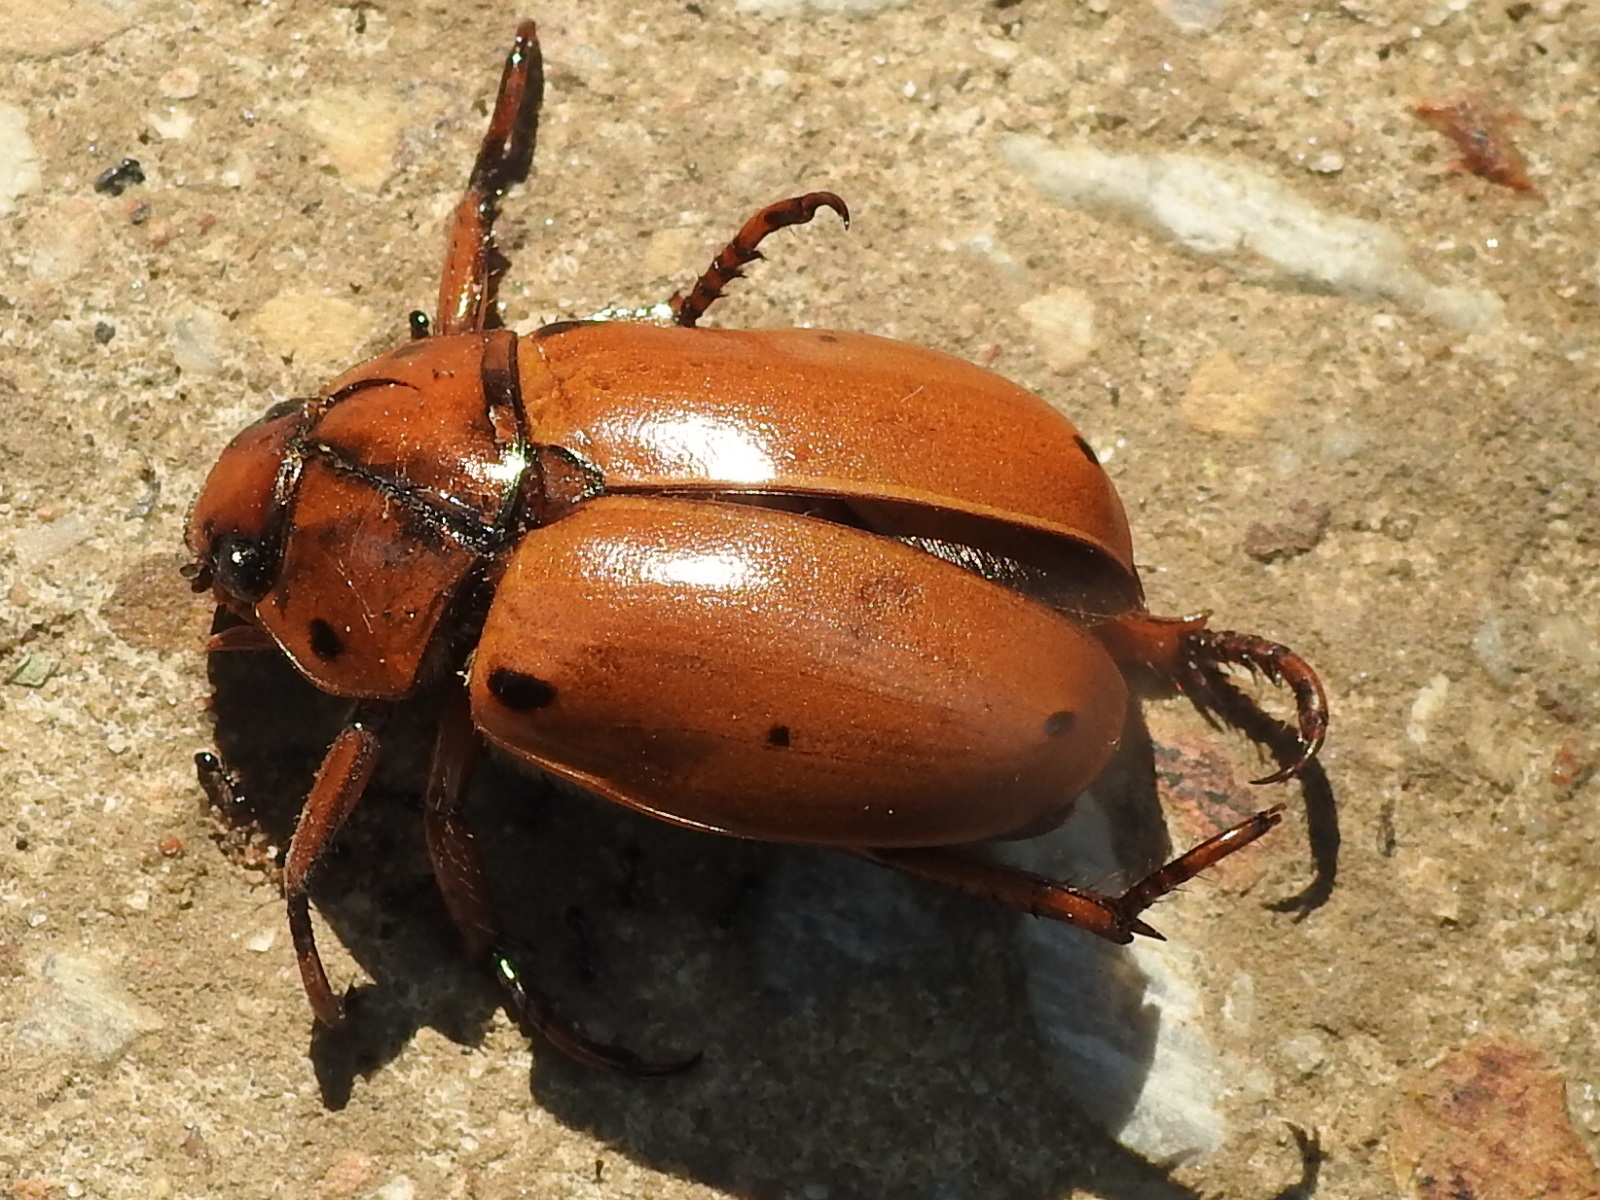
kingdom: Animalia
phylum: Arthropoda
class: Insecta
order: Coleoptera
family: Scarabaeidae
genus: Pelidnota
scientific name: Pelidnota punctata
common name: Grapevine beetle
